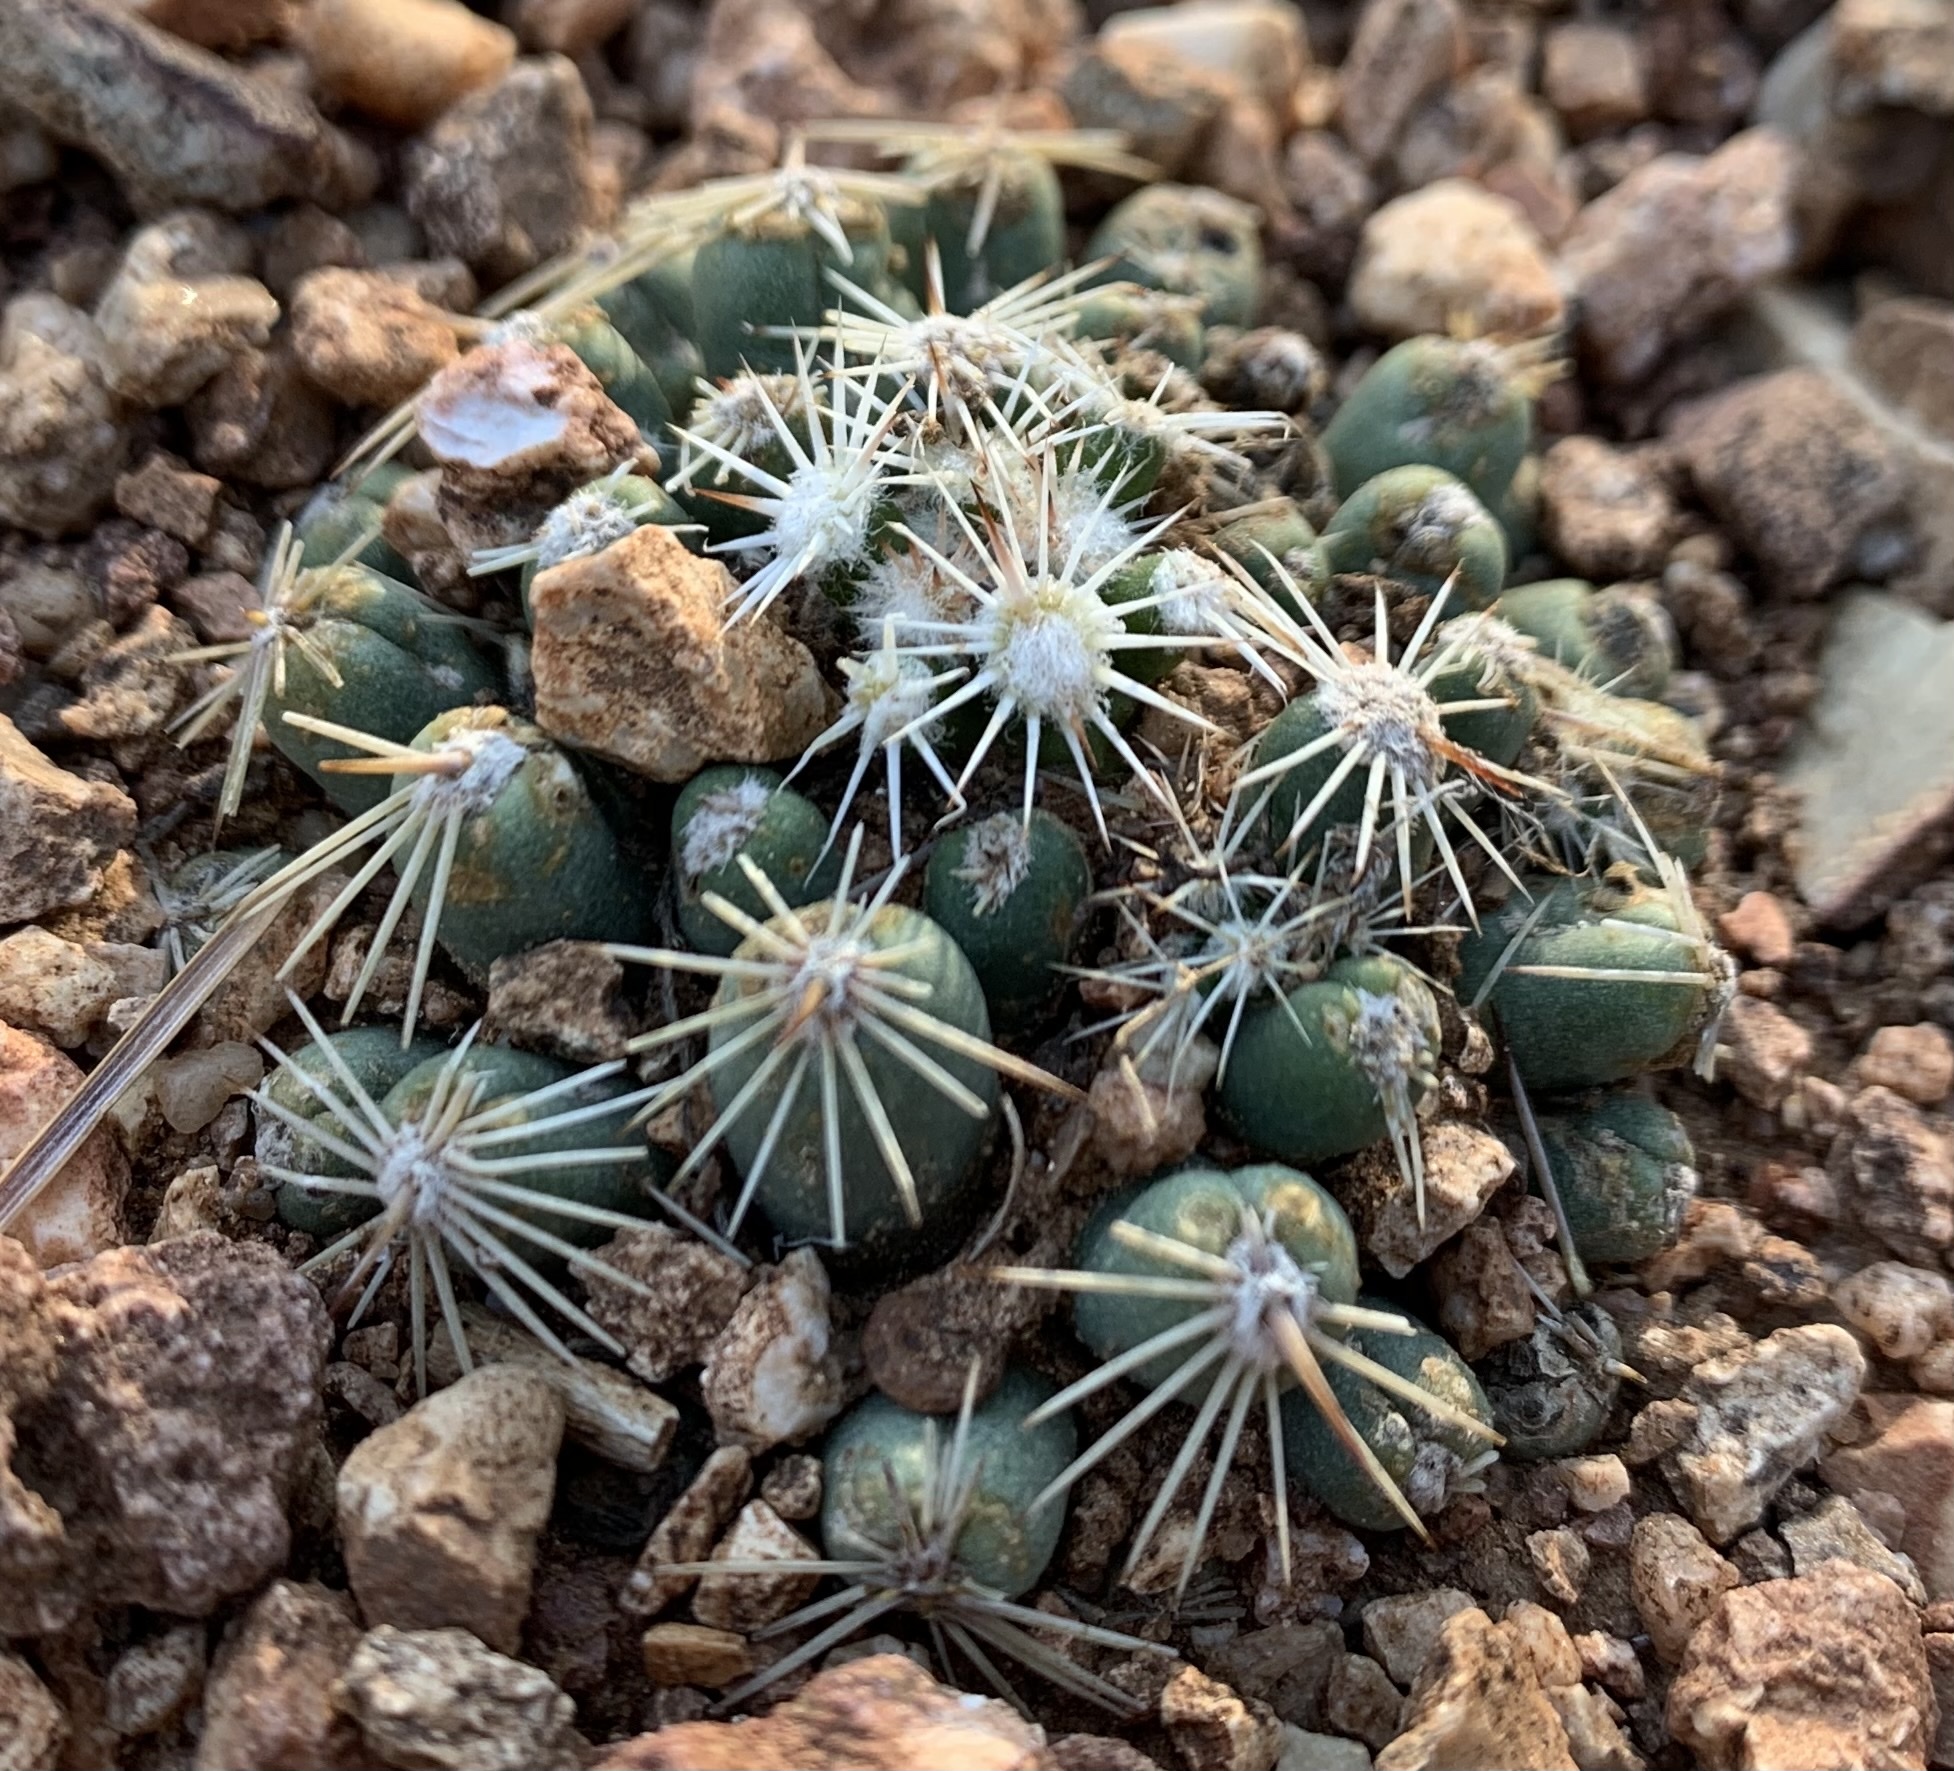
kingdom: Plantae
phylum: Tracheophyta
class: Magnoliopsida
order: Caryophyllales
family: Cactaceae
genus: Pelecyphora
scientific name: Pelecyphora missouriensis
